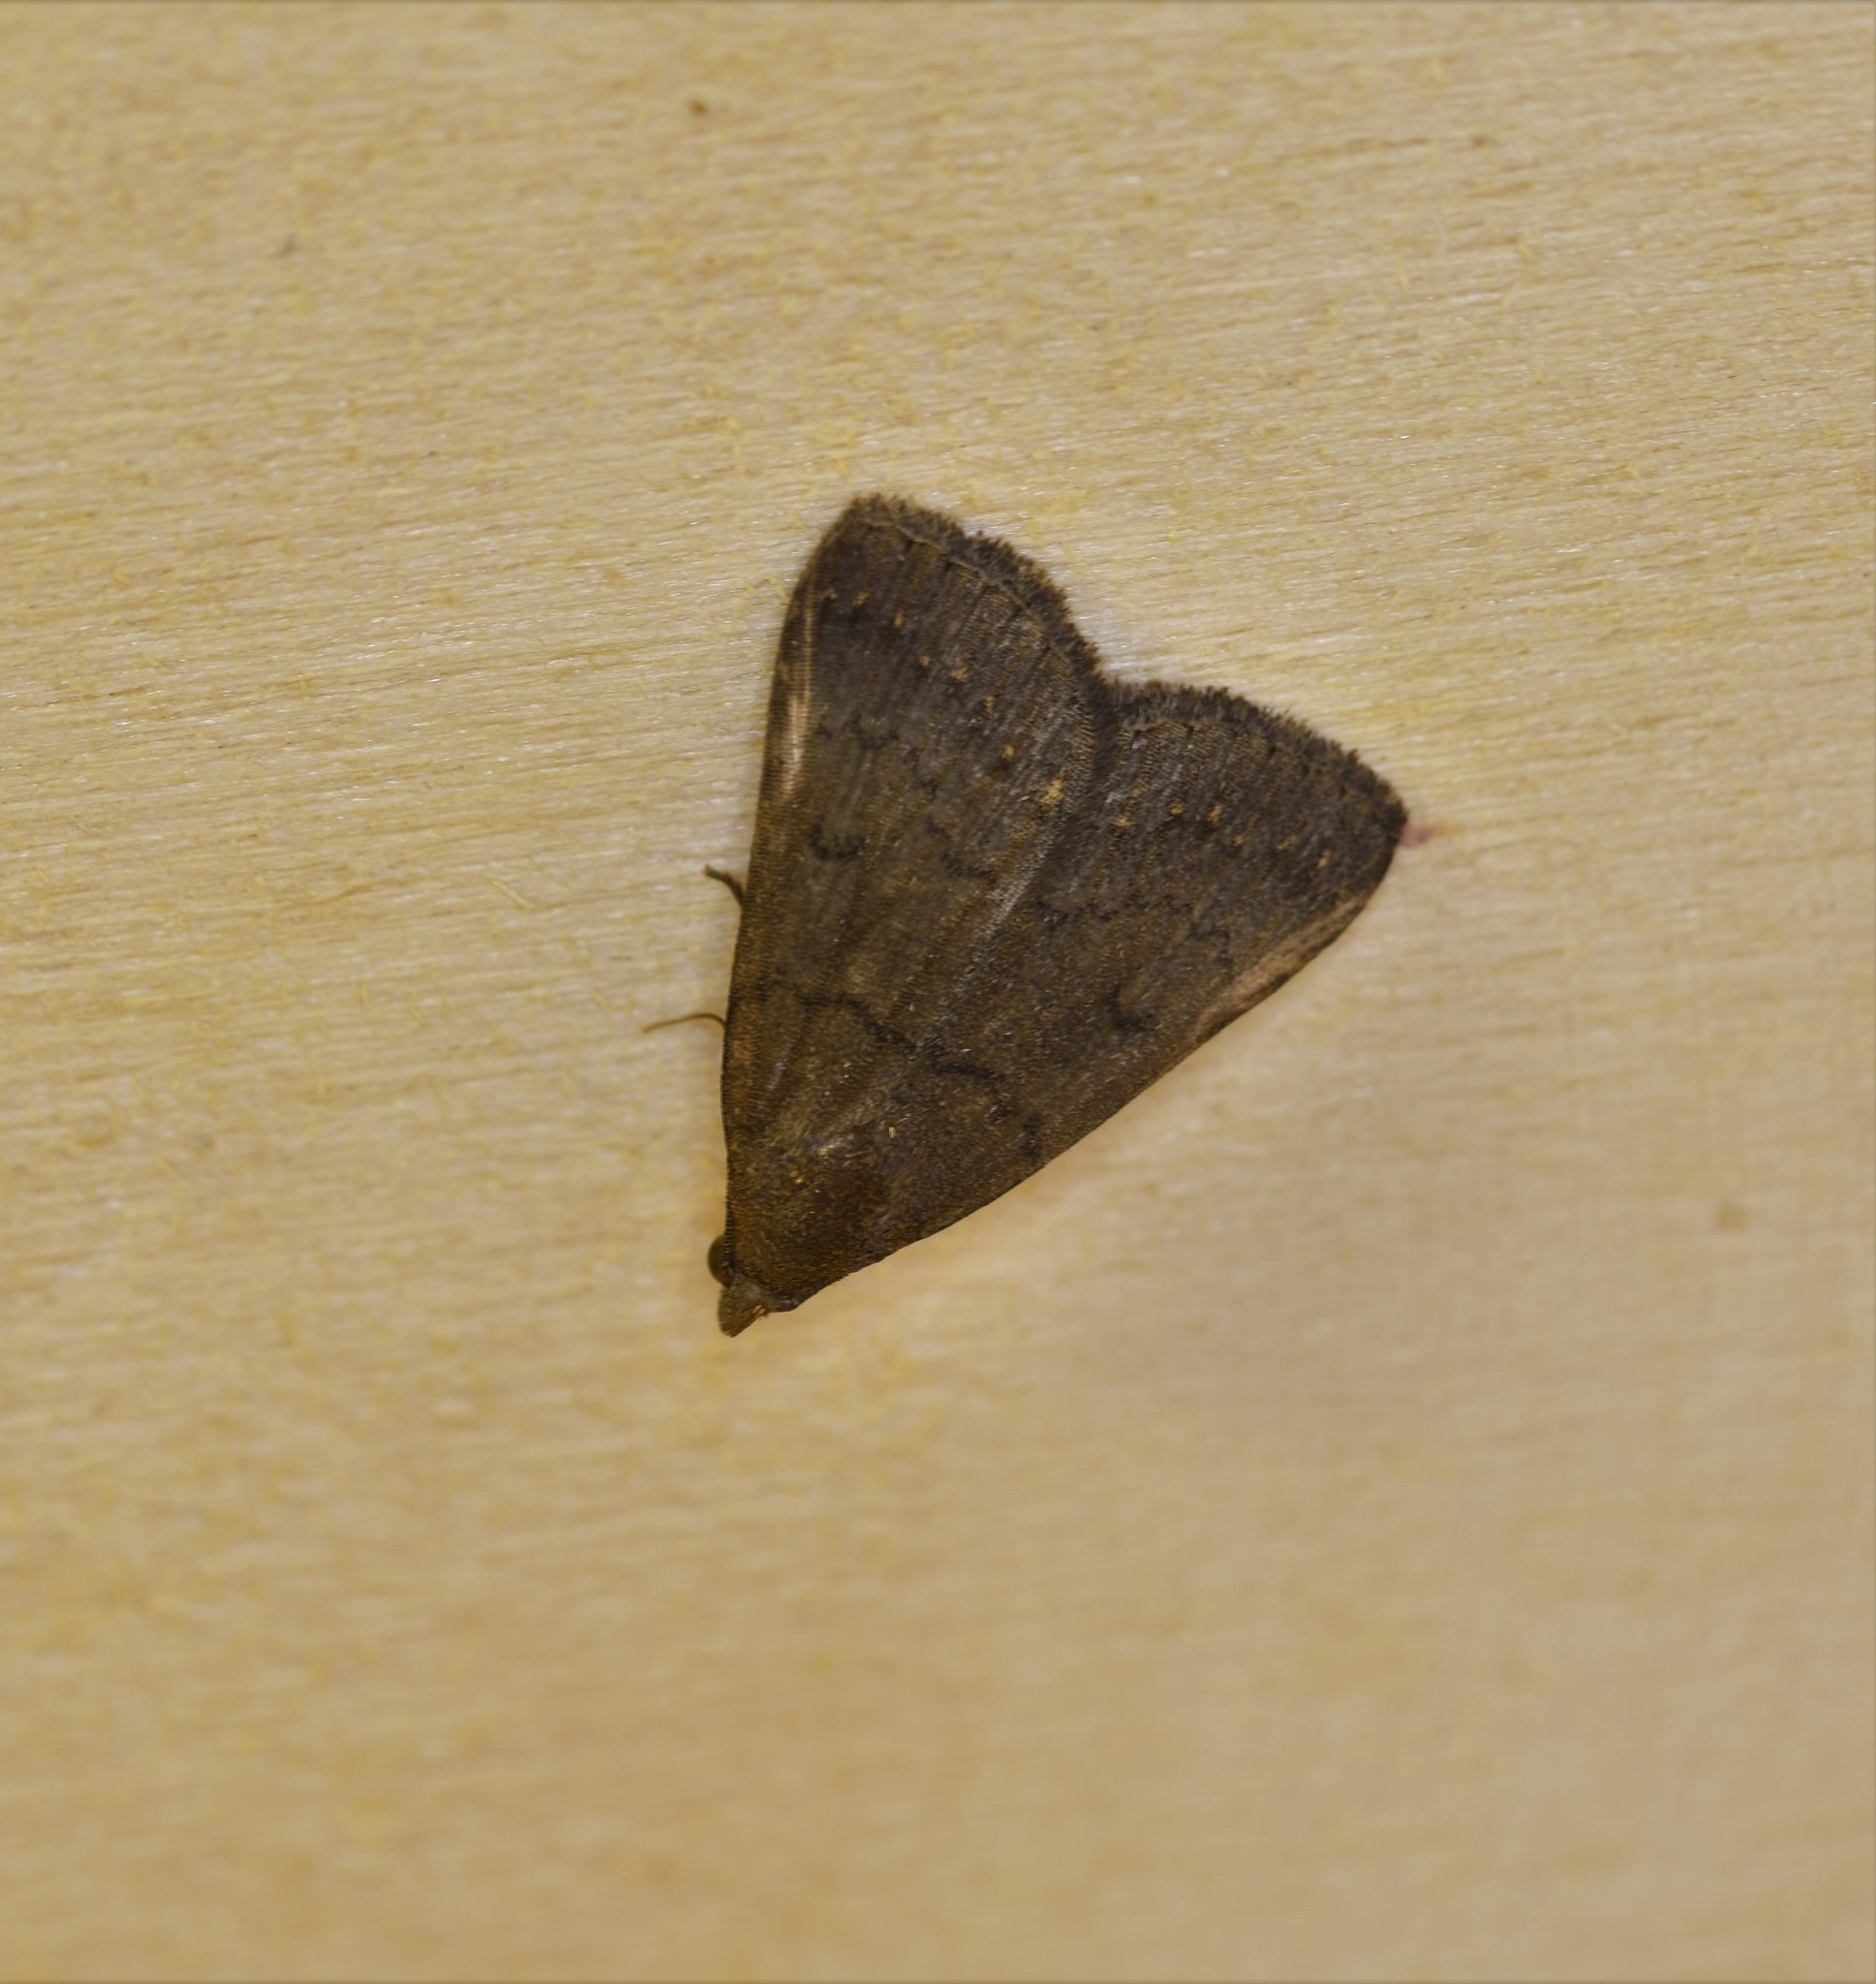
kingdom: Animalia
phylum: Arthropoda
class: Insecta
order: Lepidoptera
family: Erebidae
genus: Nodaria
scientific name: Nodaria nodosalis
